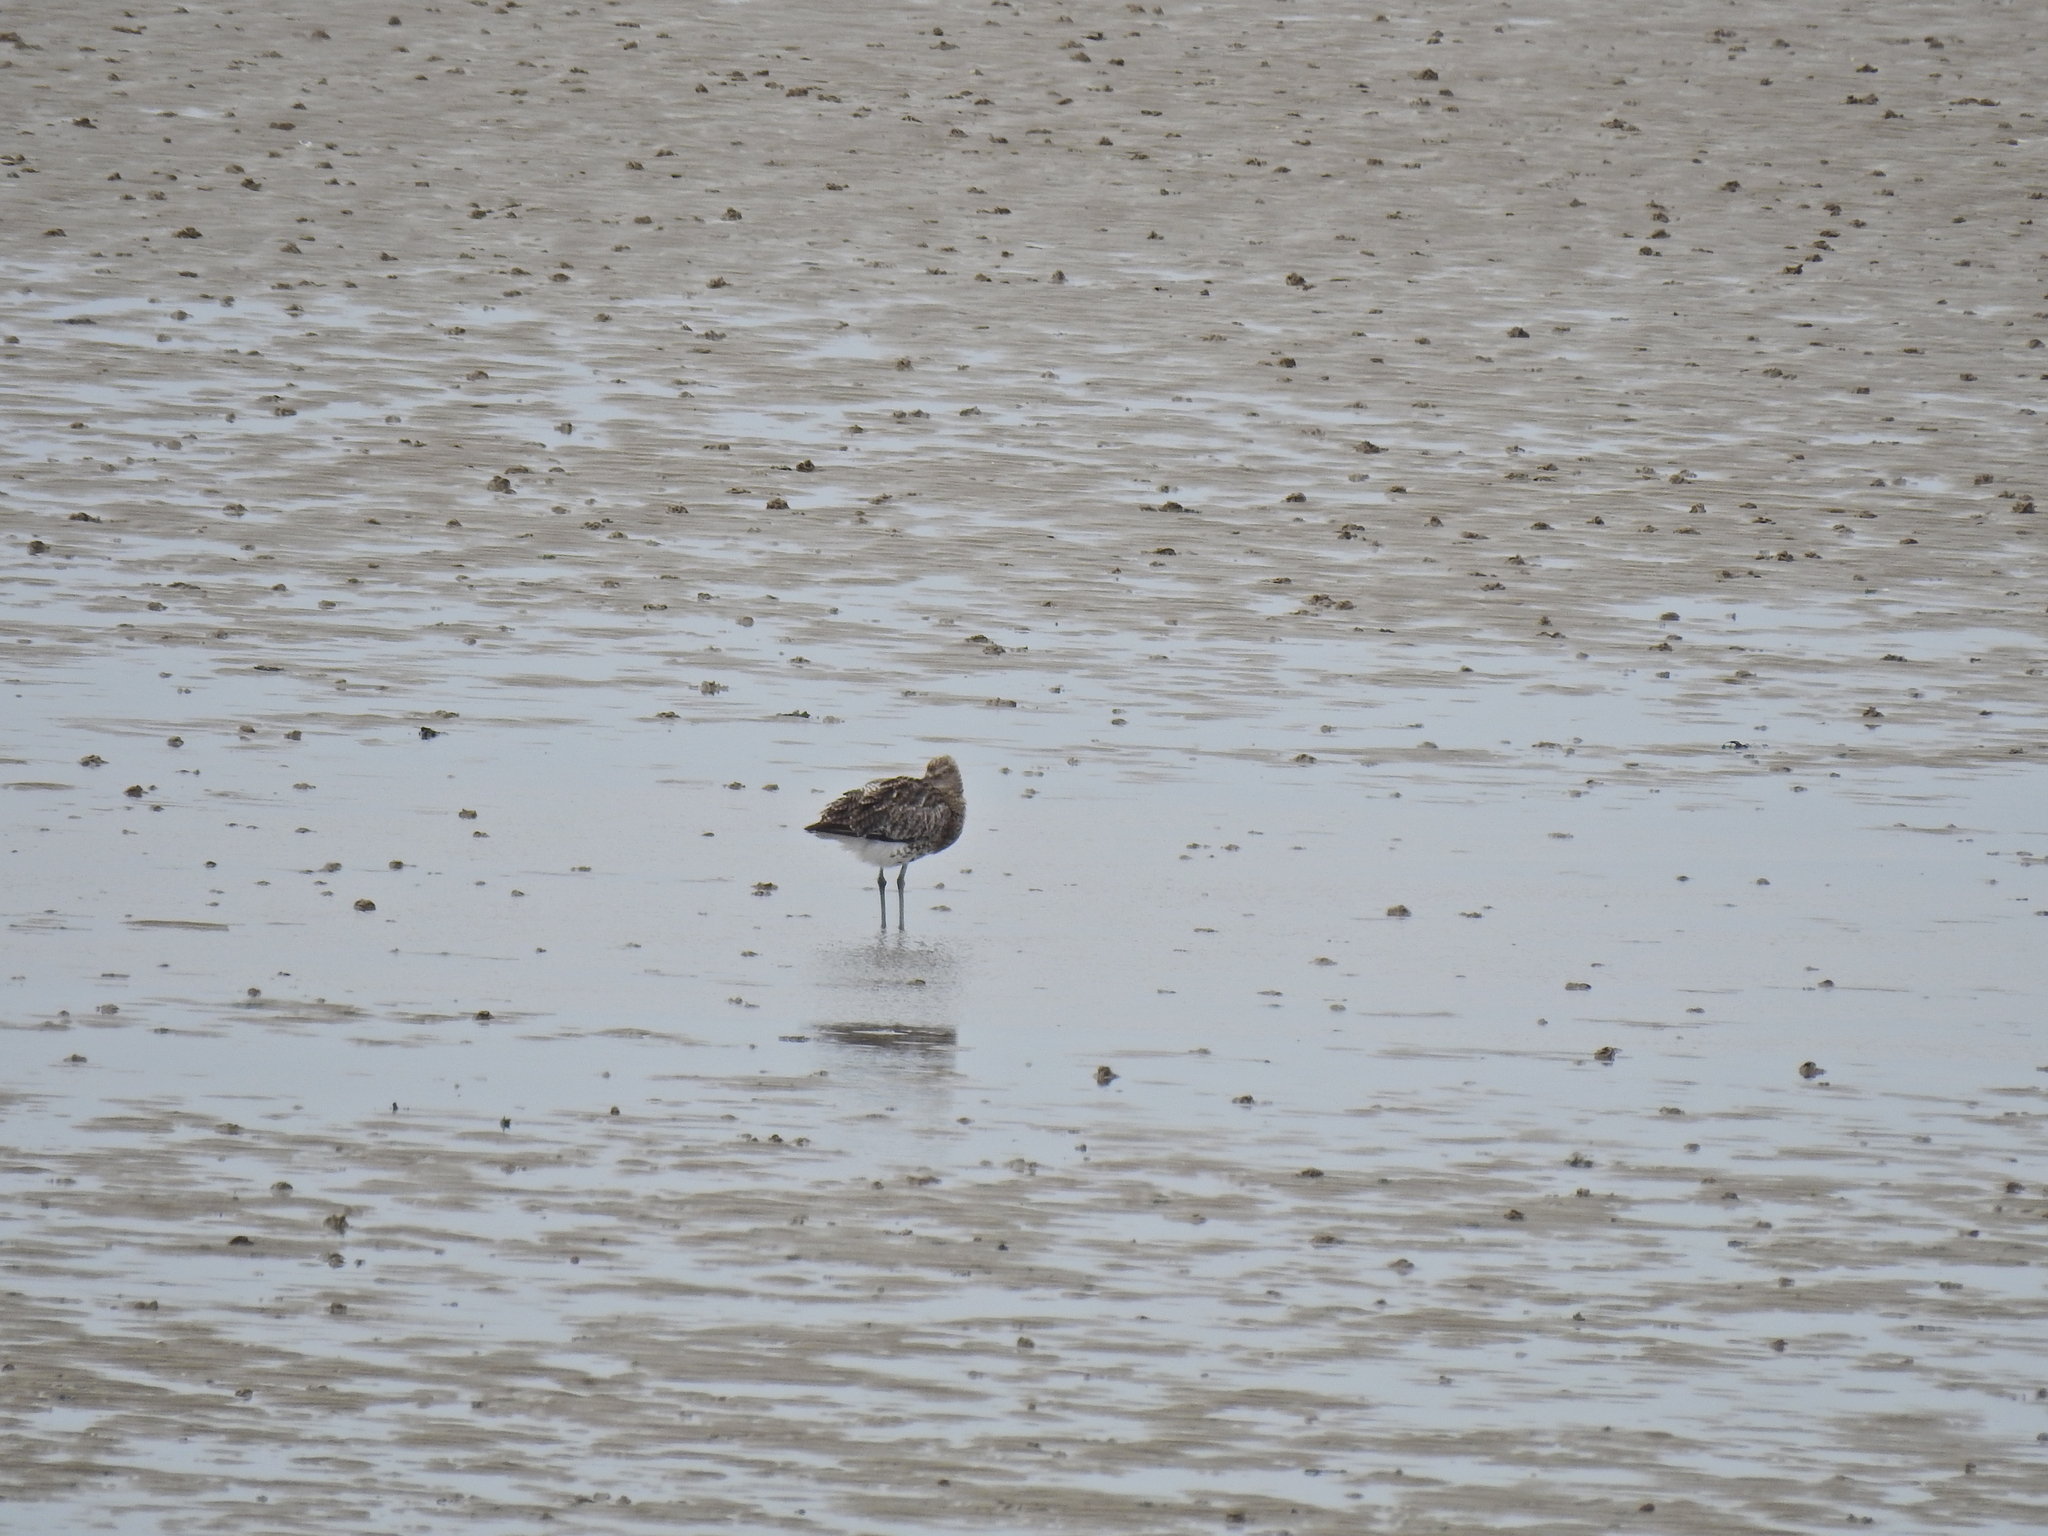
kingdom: Animalia
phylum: Chordata
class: Aves
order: Charadriiformes
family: Scolopacidae
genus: Numenius
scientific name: Numenius arquata
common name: Eurasian curlew
